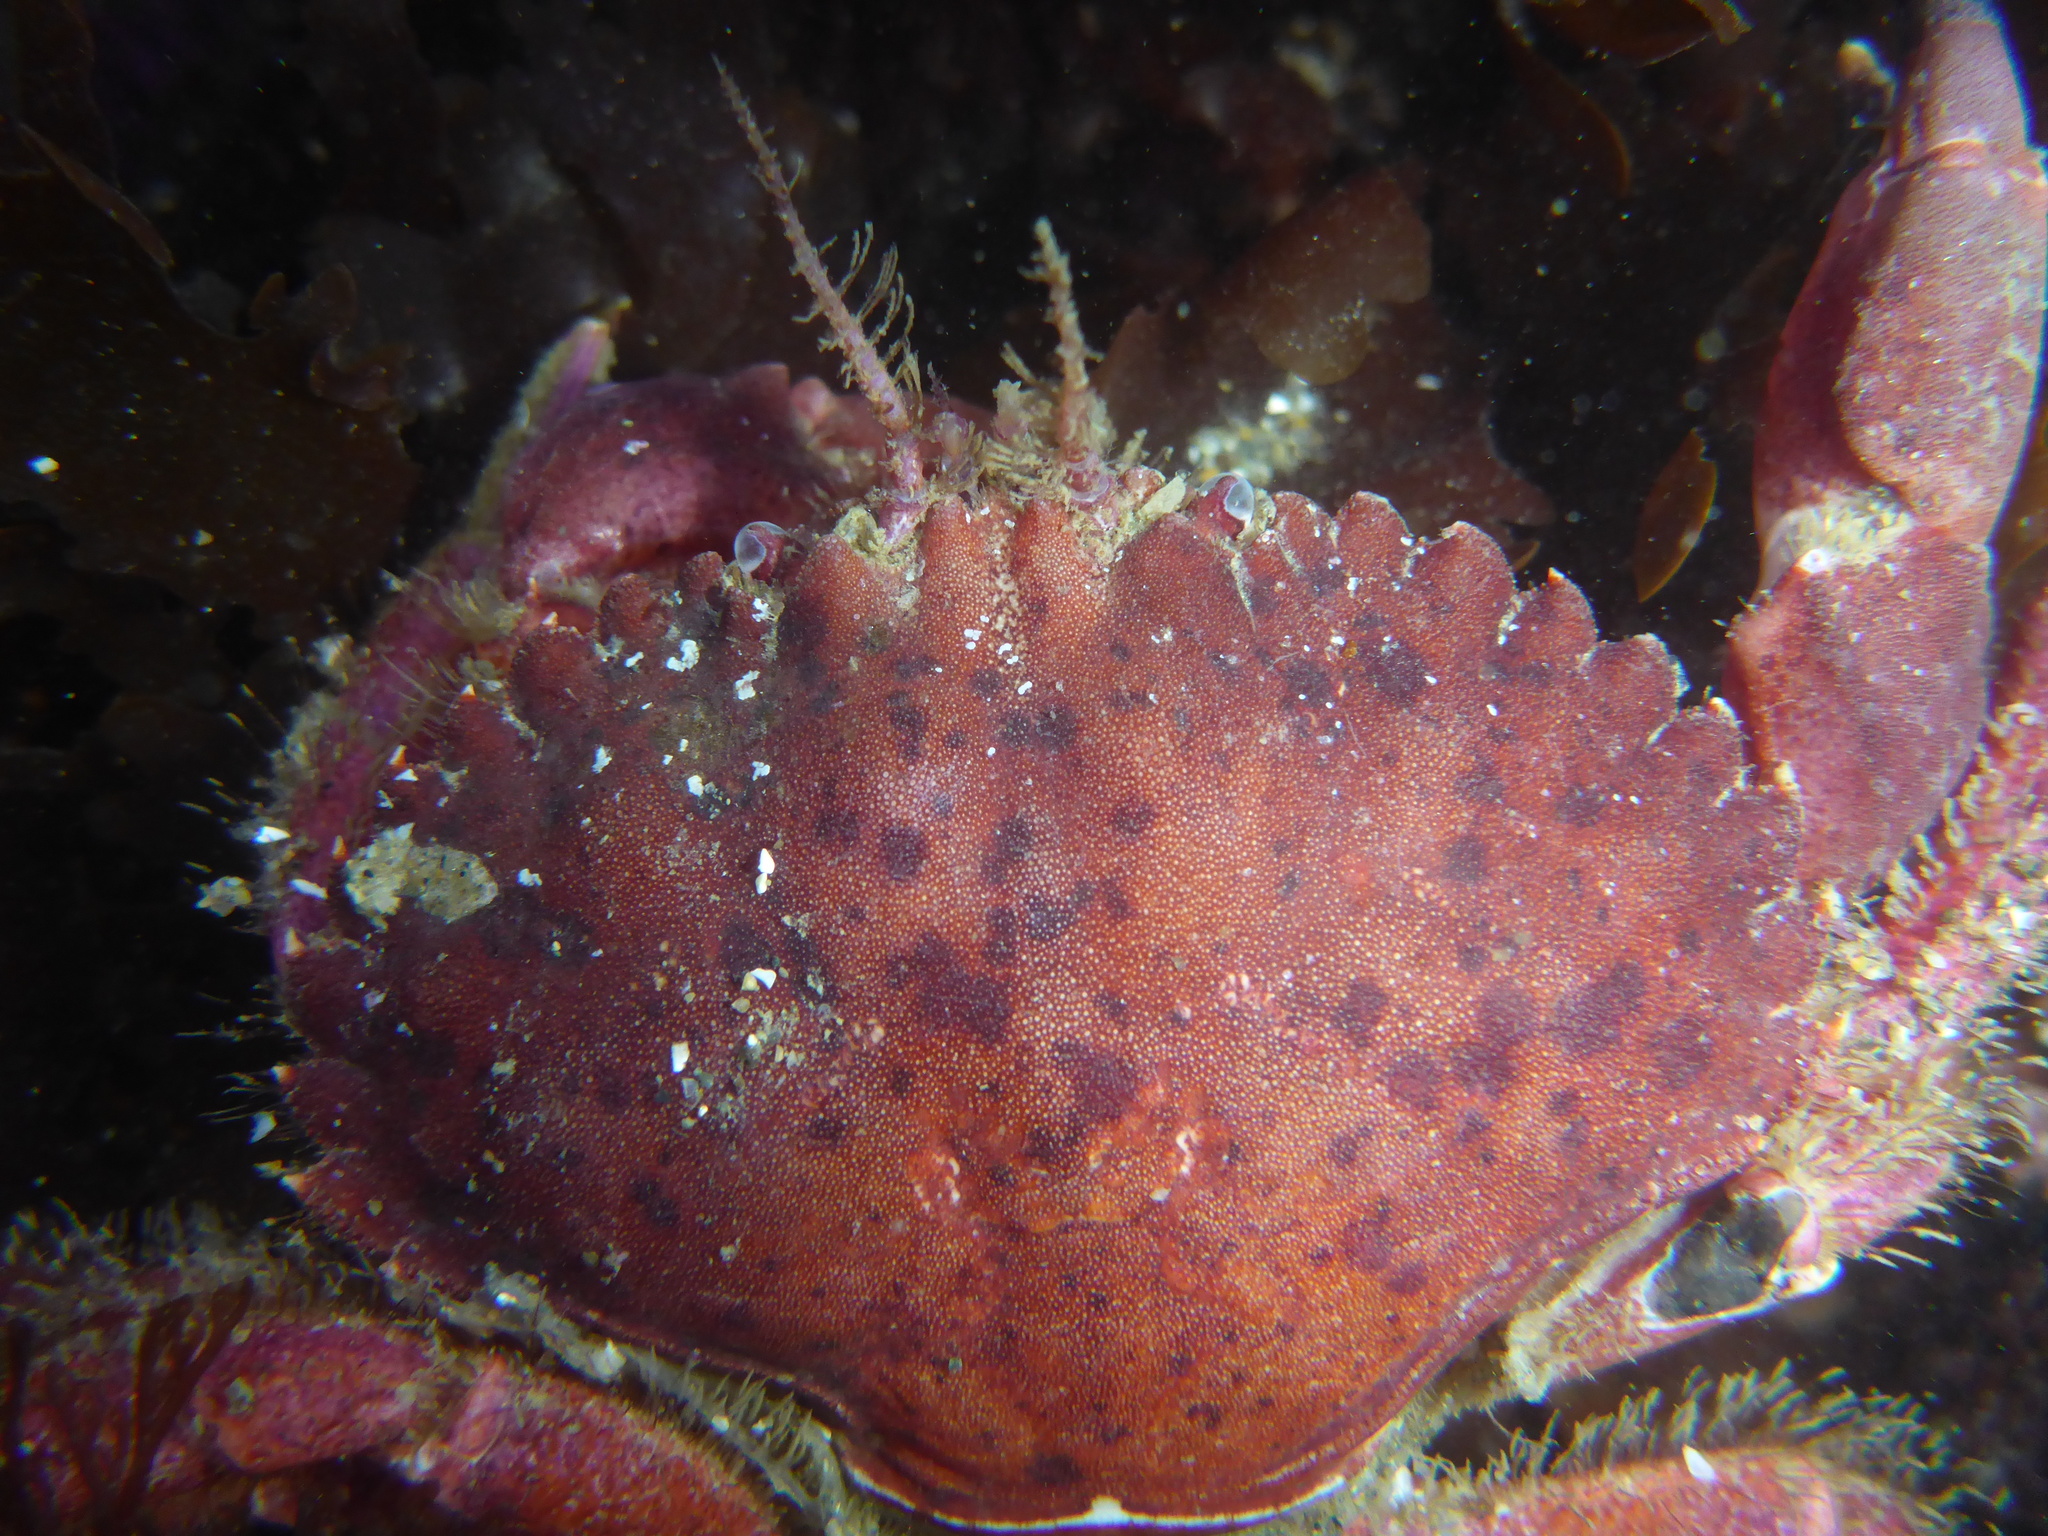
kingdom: Animalia
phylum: Arthropoda
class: Malacostraca
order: Decapoda
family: Cancridae
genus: Romaleon
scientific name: Romaleon antennarium
